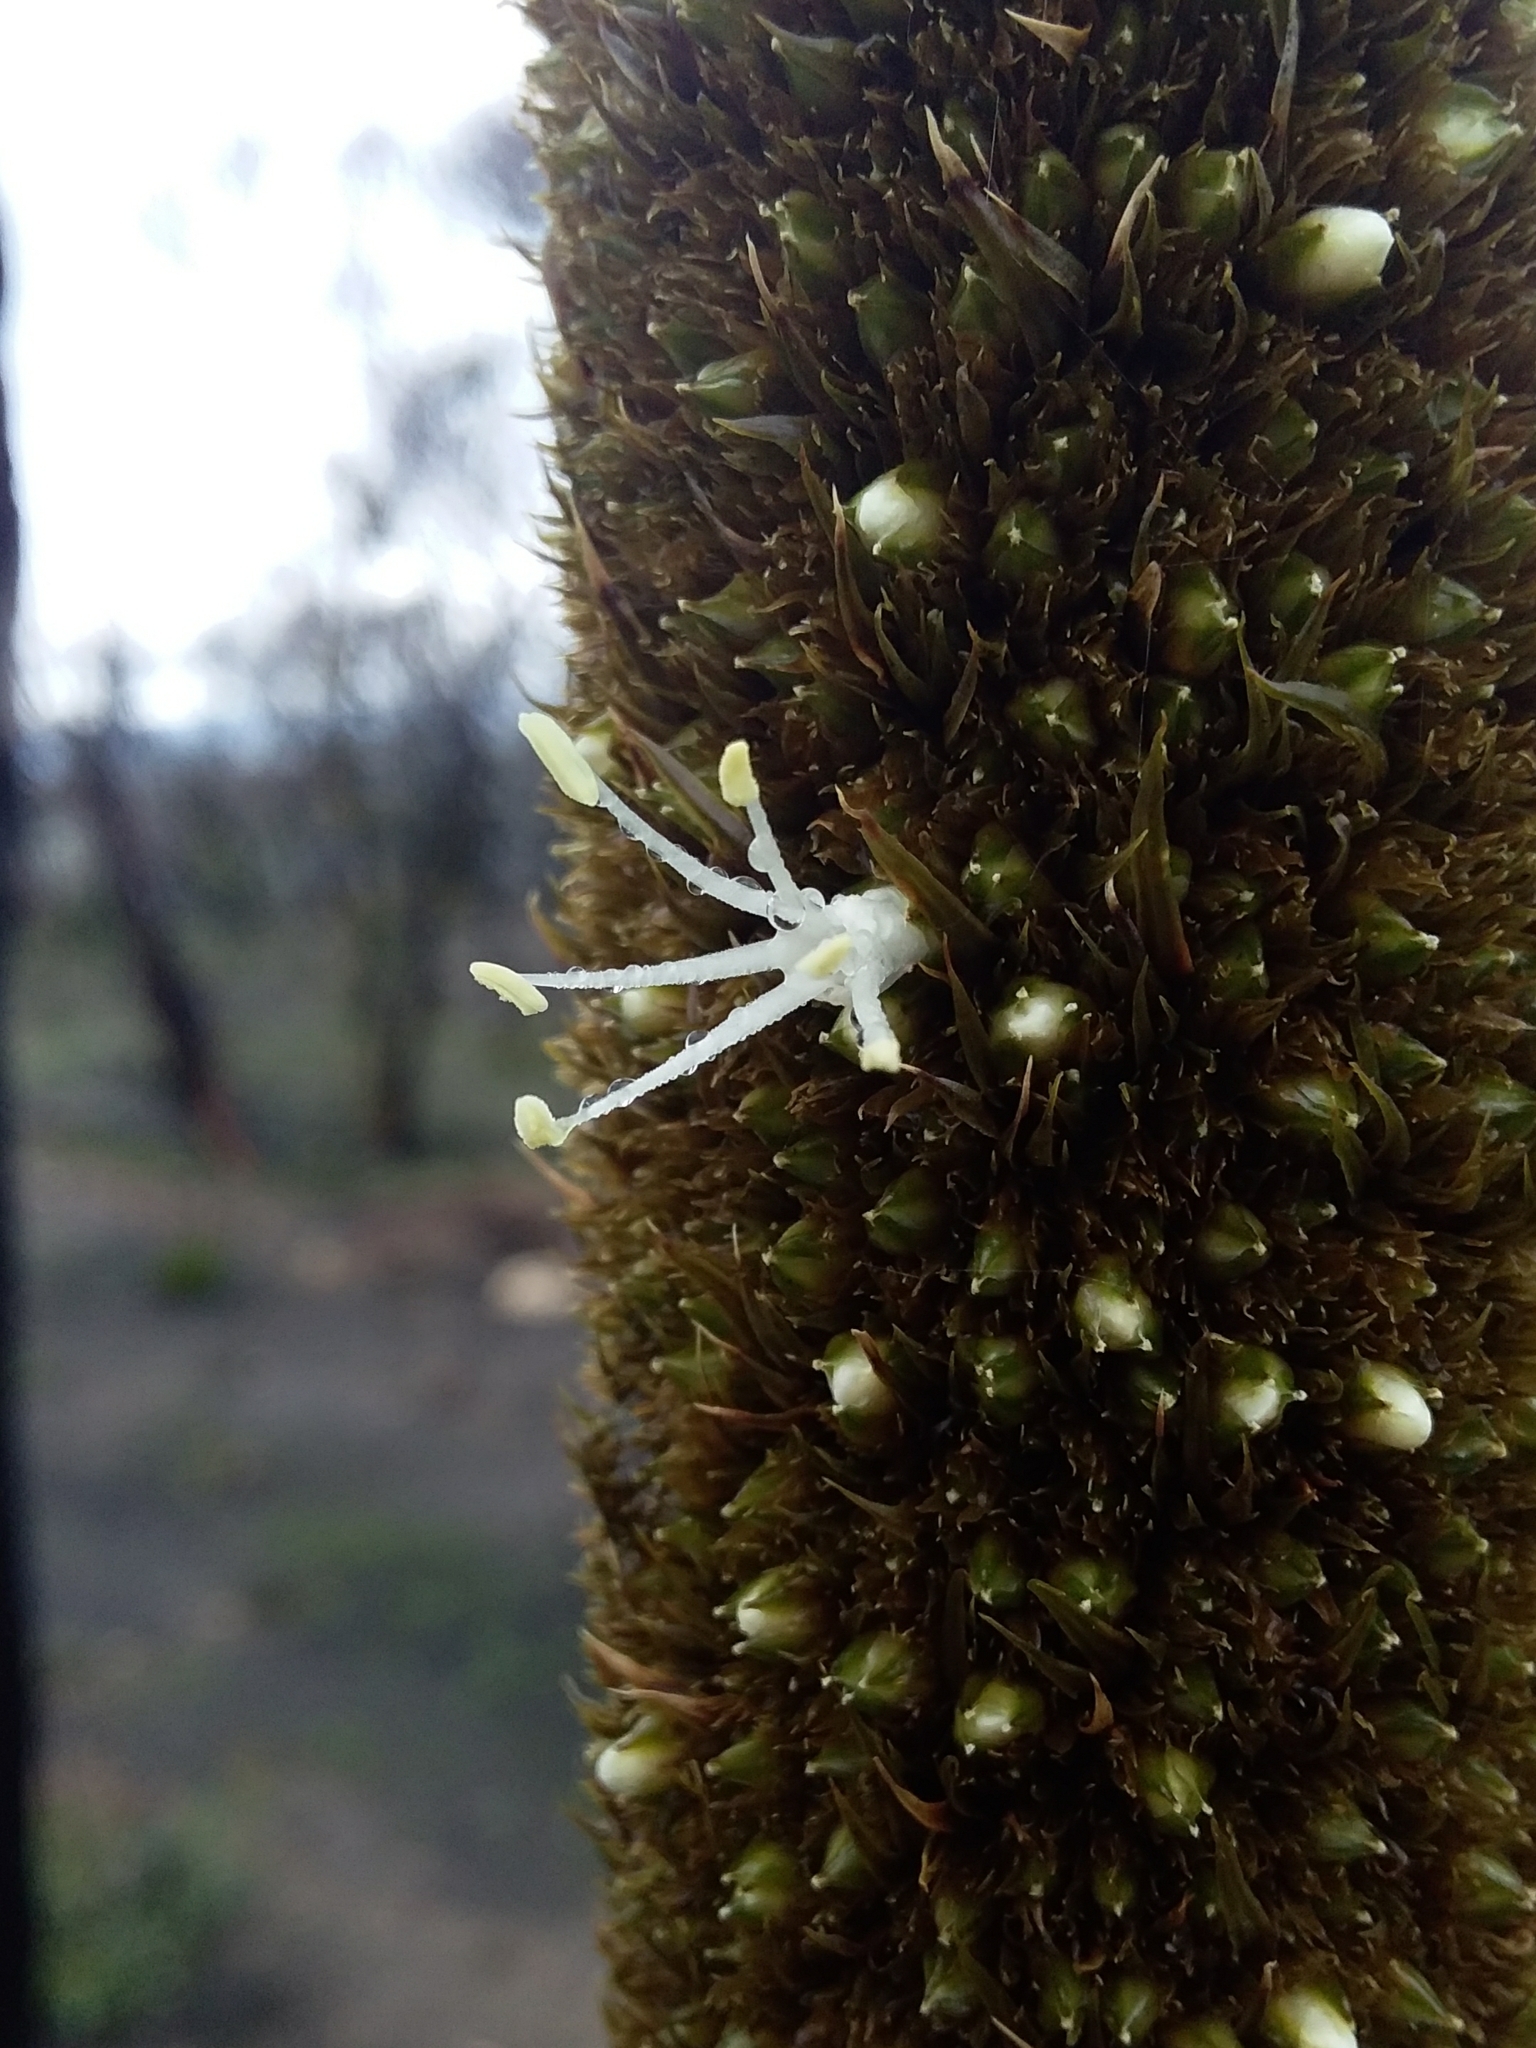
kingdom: Plantae
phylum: Tracheophyta
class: Liliopsida
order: Asparagales
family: Asphodelaceae
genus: Xanthorrhoea
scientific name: Xanthorrhoea semiplana
